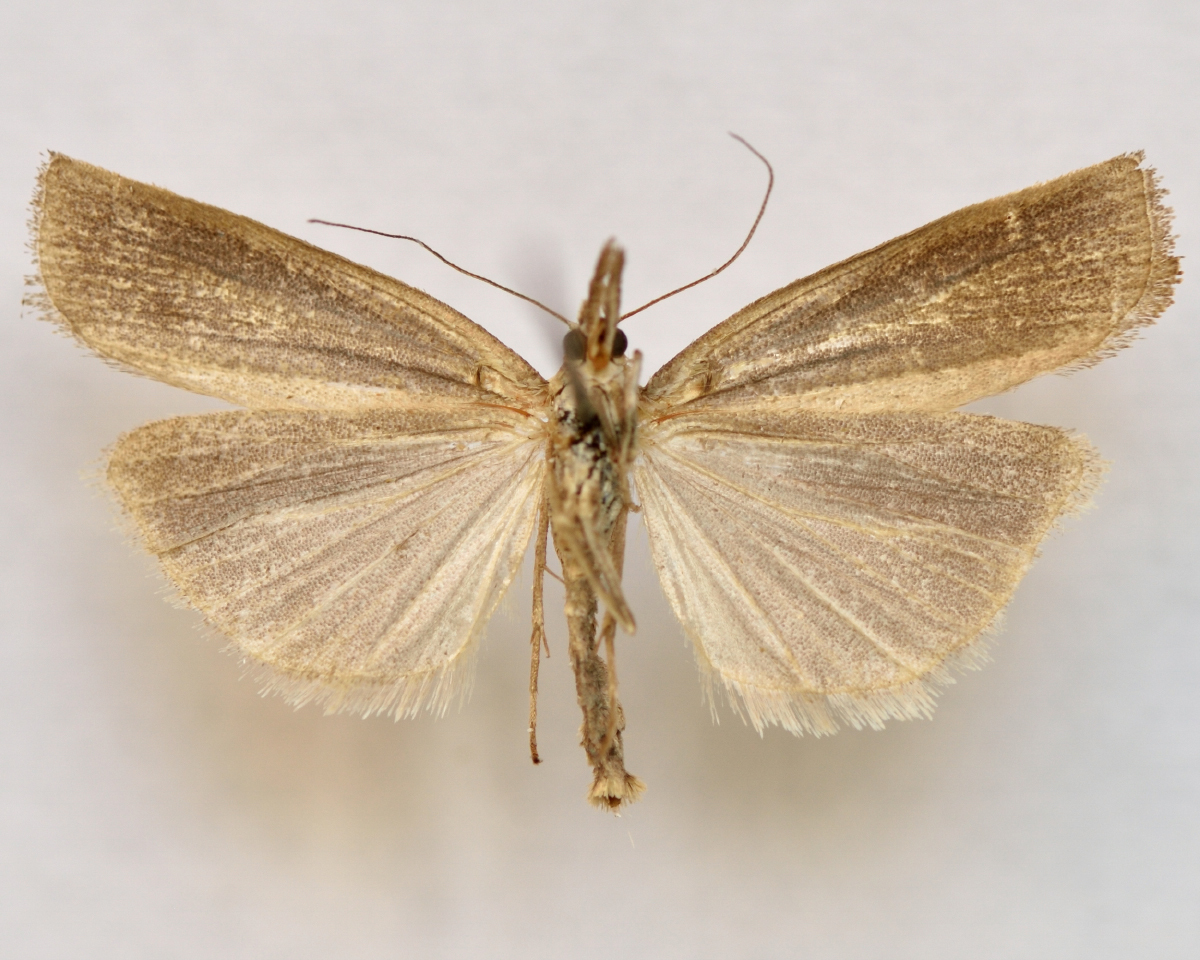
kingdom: Animalia
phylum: Arthropoda
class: Insecta
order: Lepidoptera
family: Crambidae
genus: Agriphila
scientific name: Agriphila selasella
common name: Pale-streak grass-veneer
